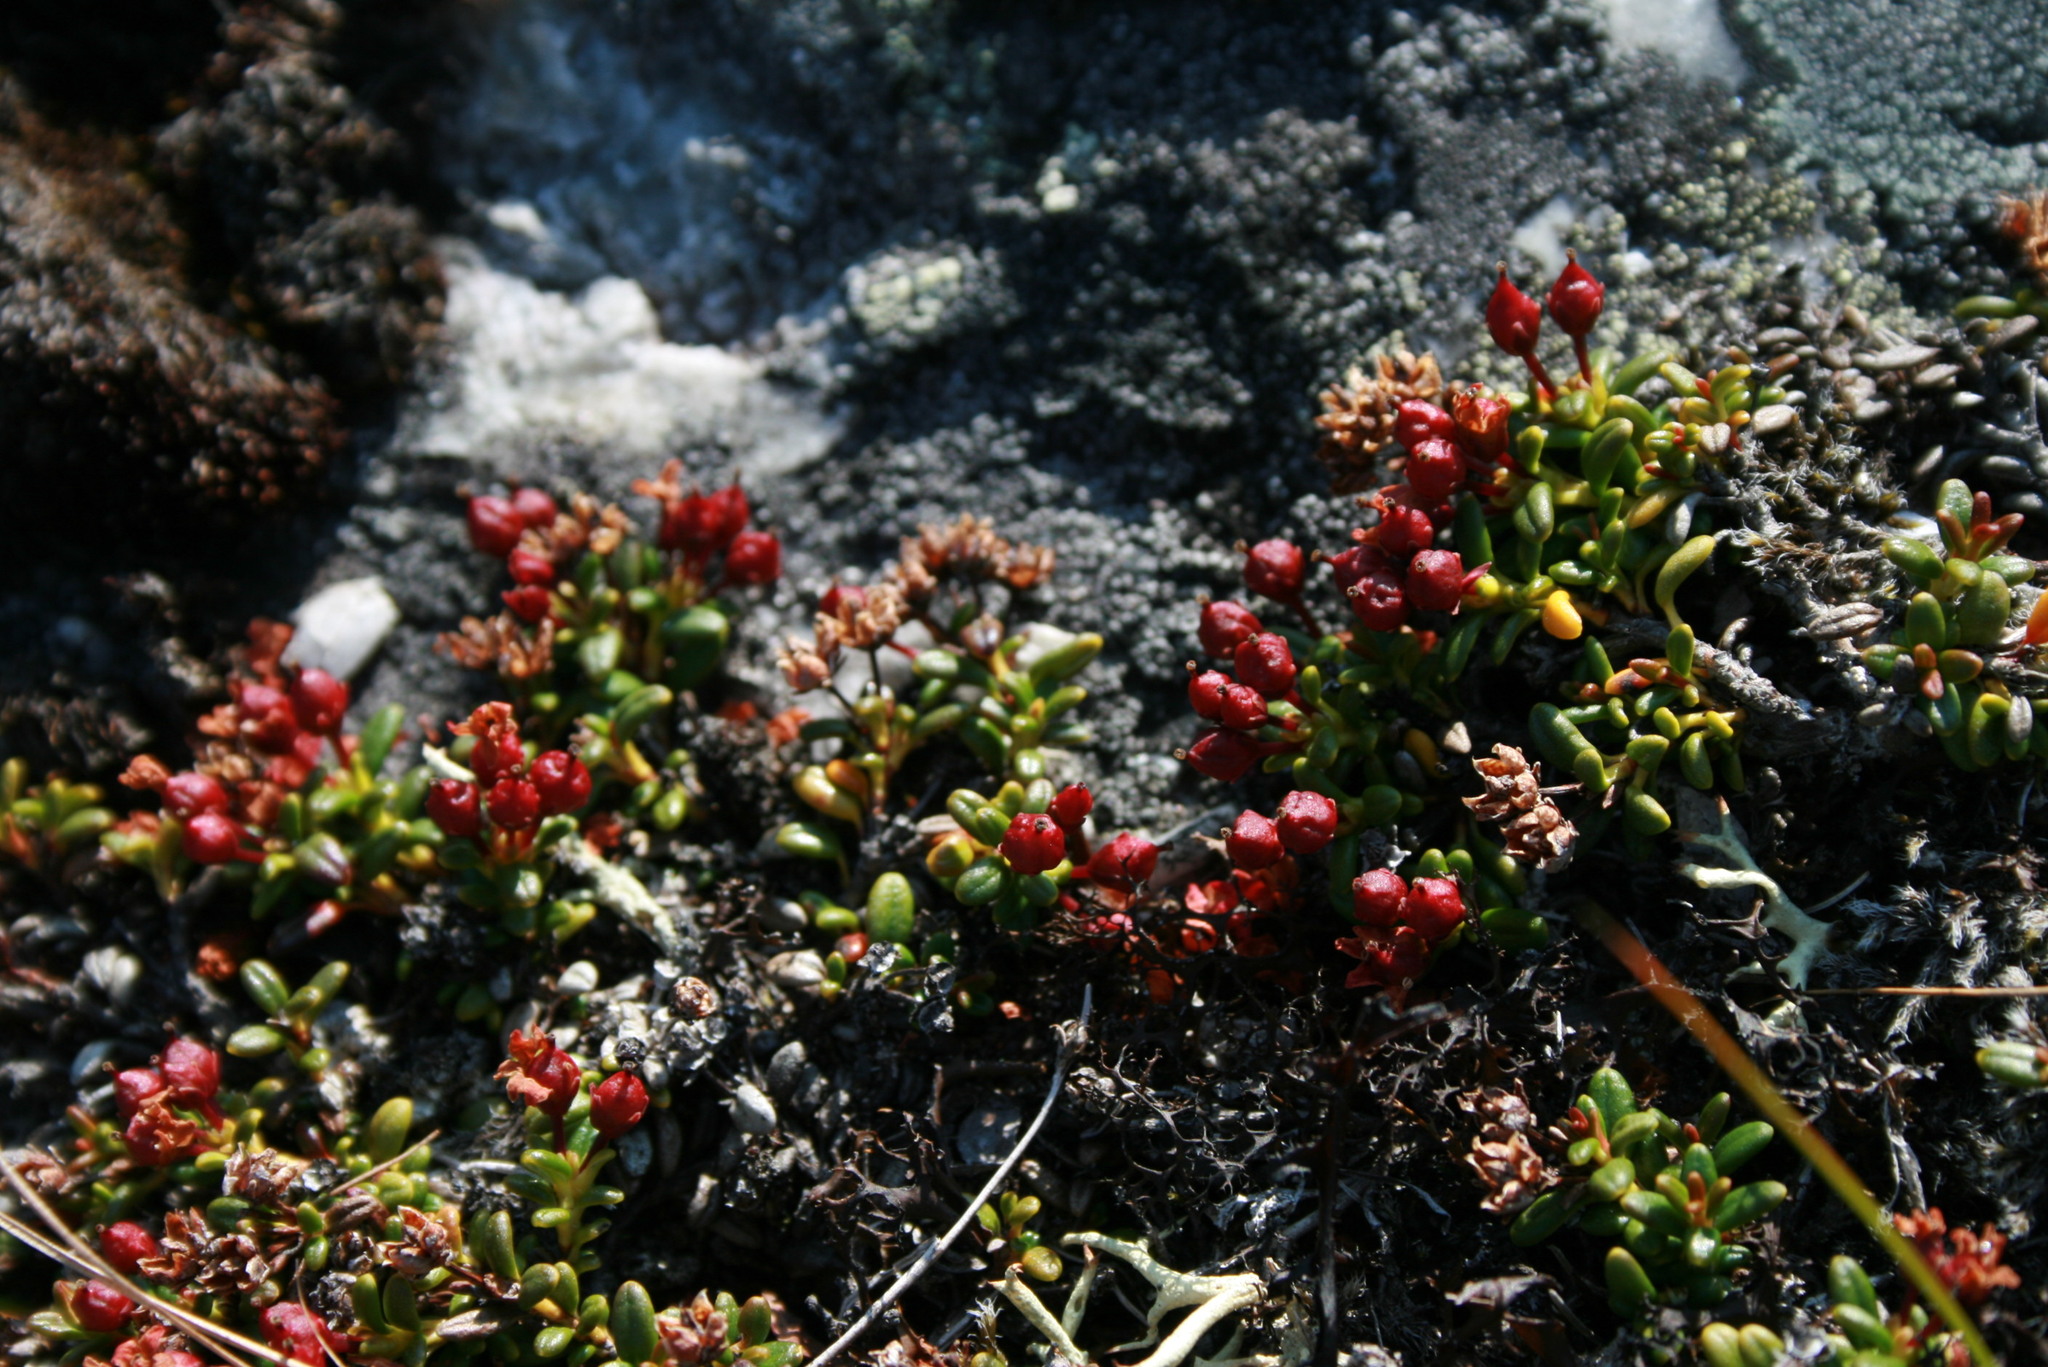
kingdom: Plantae
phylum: Tracheophyta
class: Magnoliopsida
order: Ericales
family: Ericaceae
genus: Kalmia
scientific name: Kalmia procumbens
